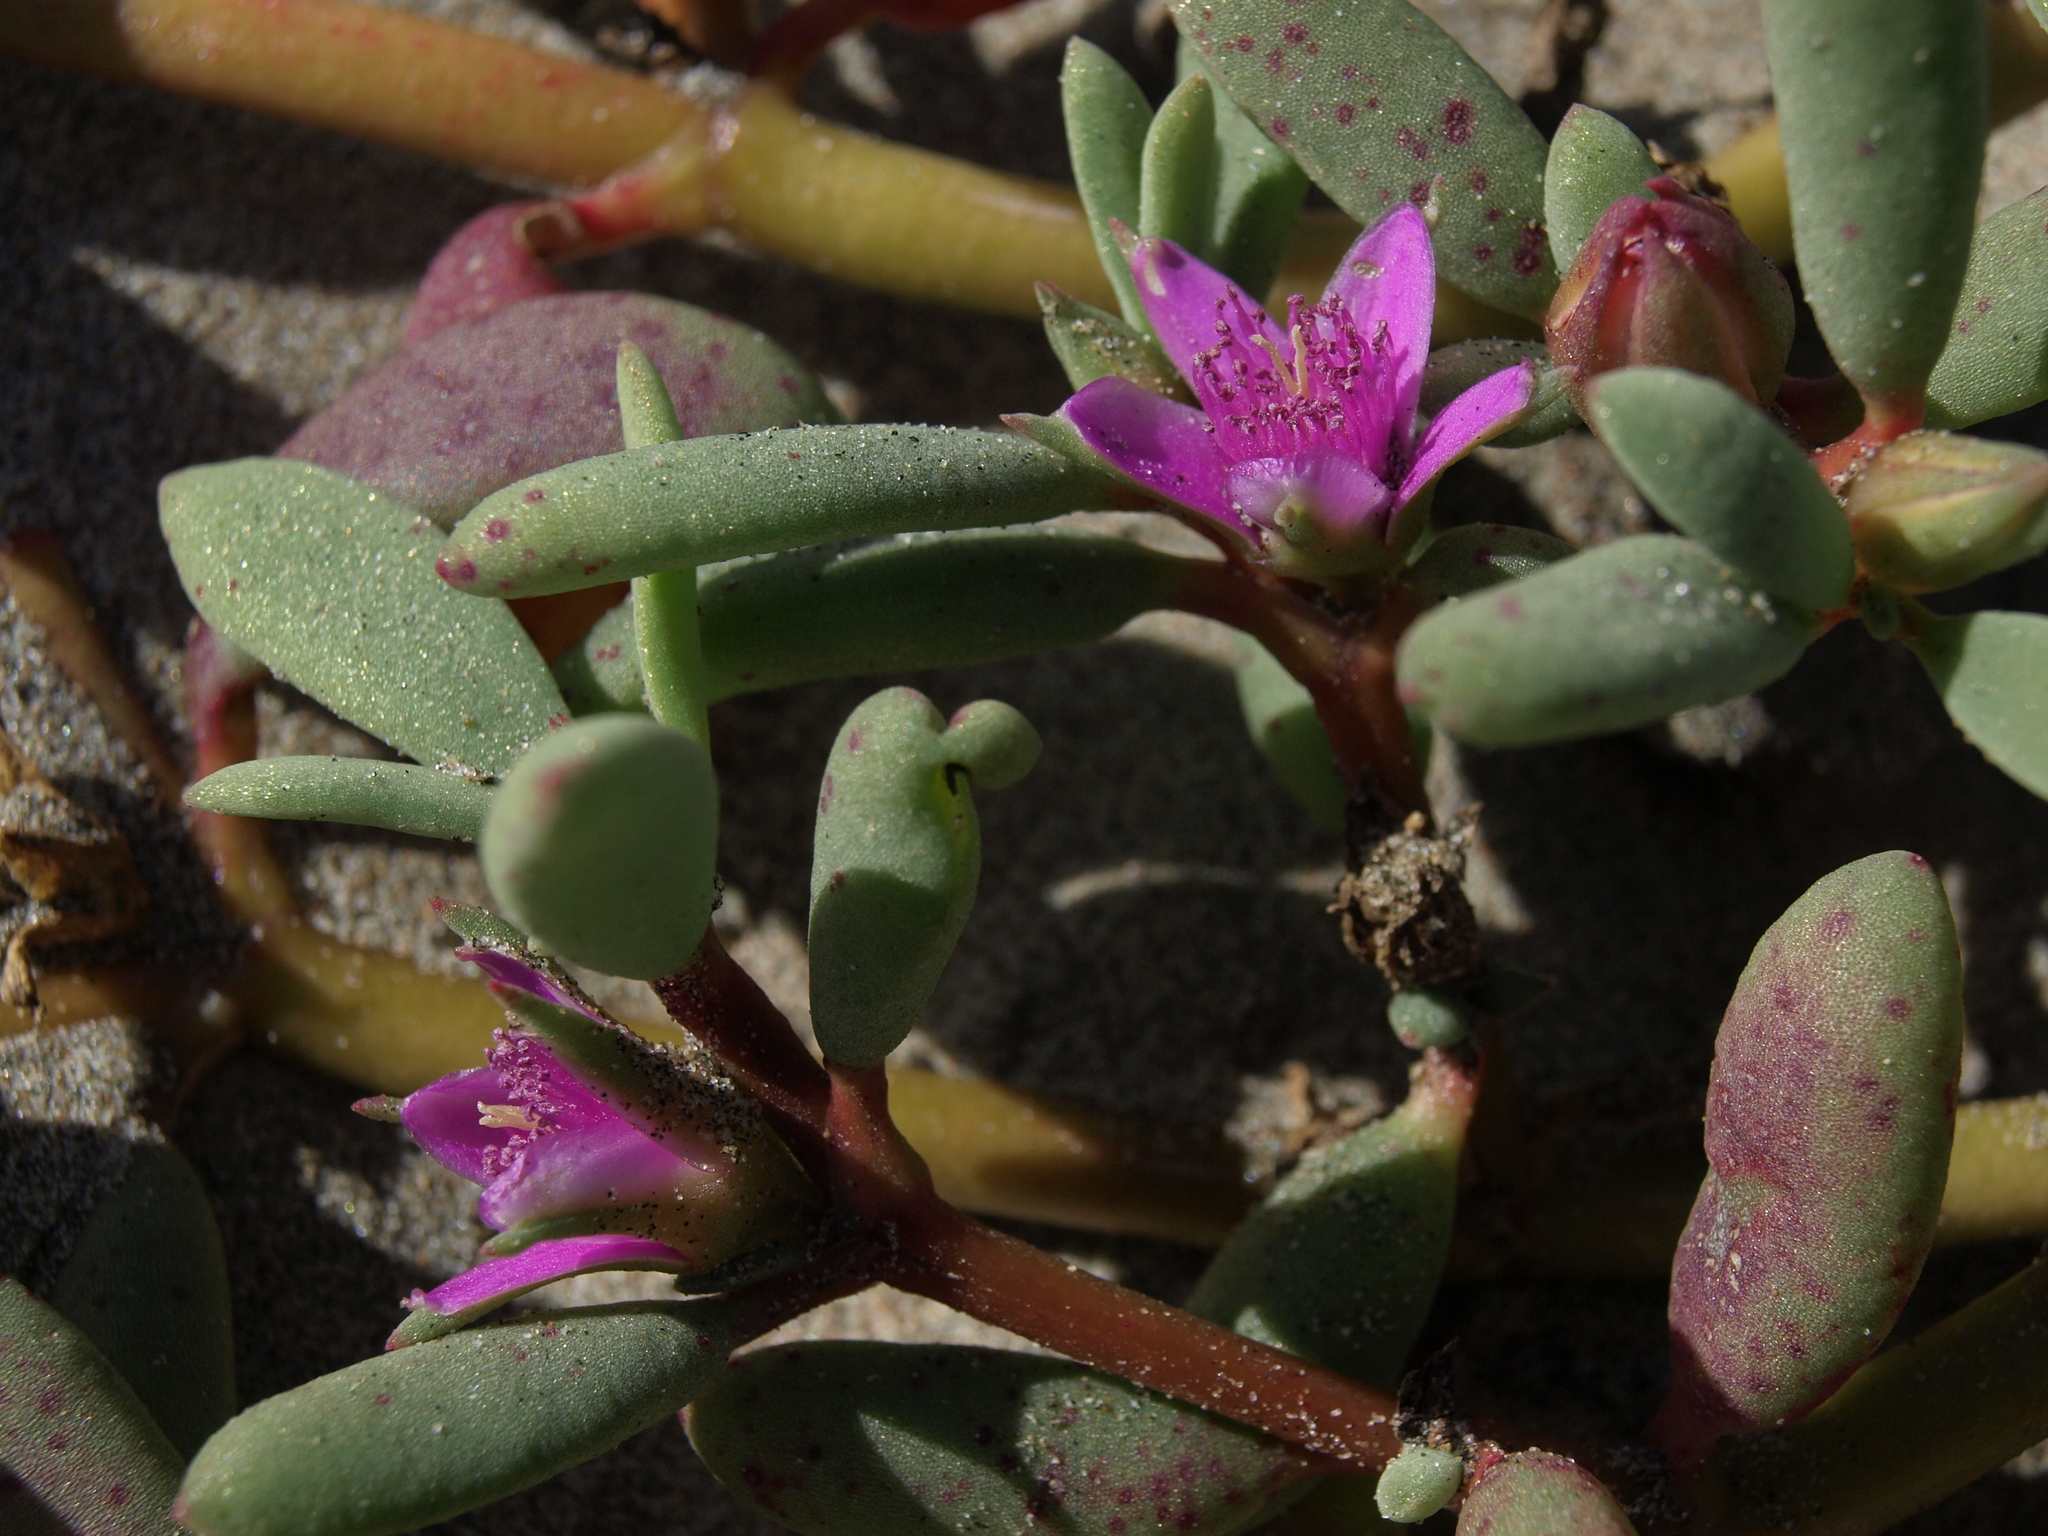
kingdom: Plantae
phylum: Tracheophyta
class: Magnoliopsida
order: Caryophyllales
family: Aizoaceae
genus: Sesuvium
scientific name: Sesuvium revolutifolium
